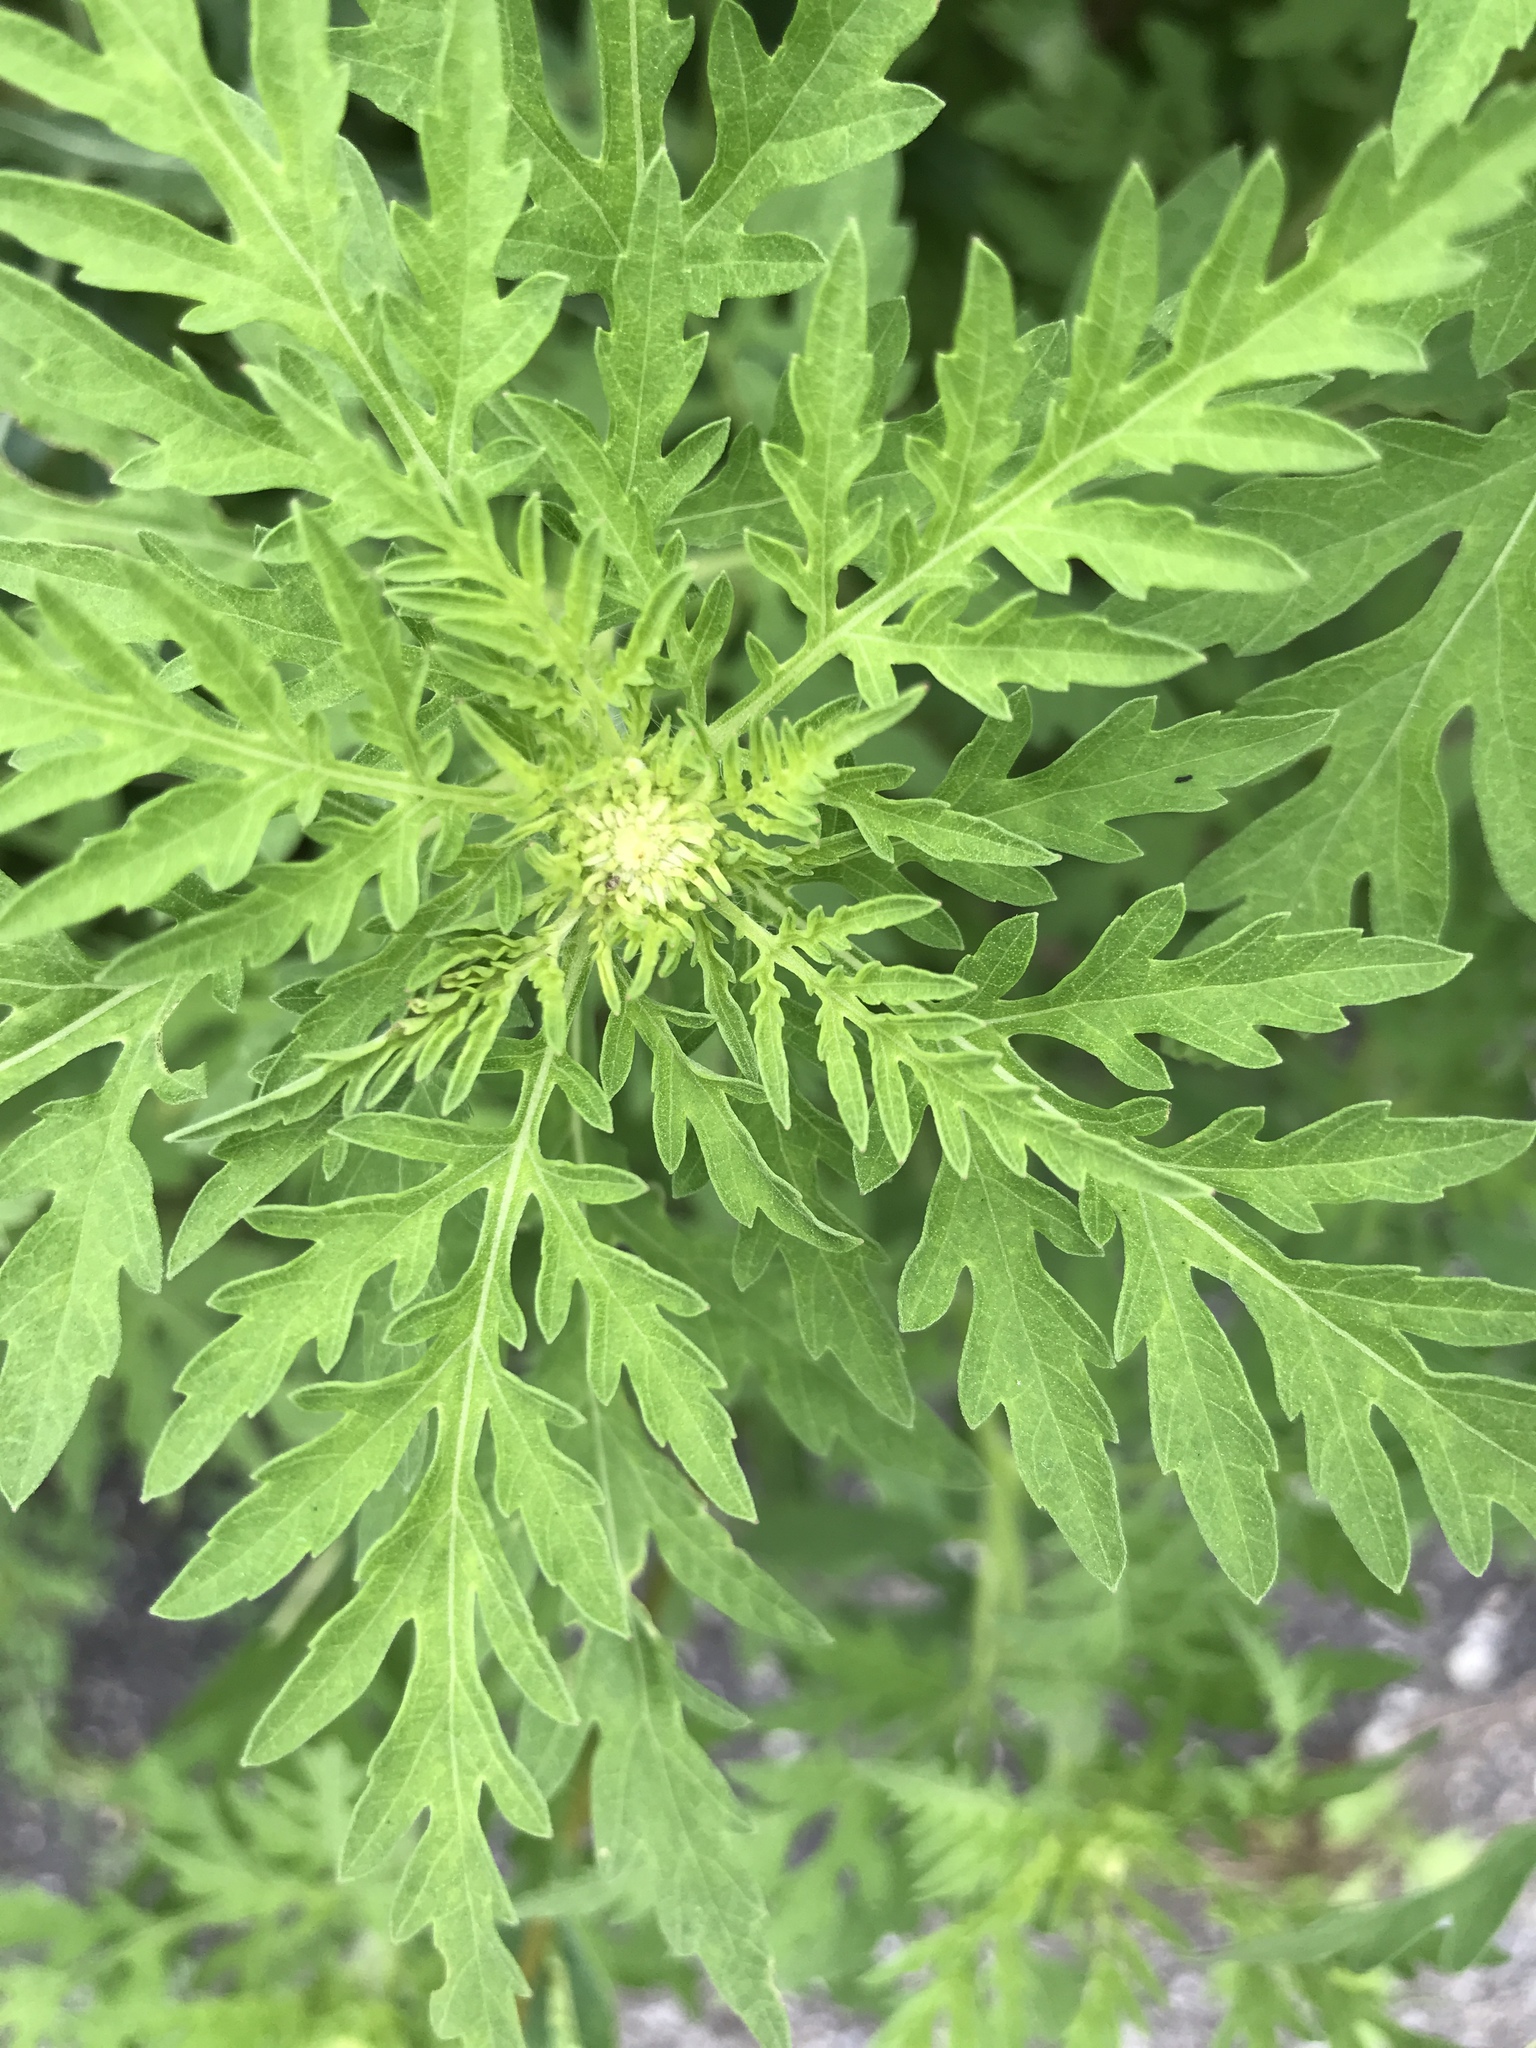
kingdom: Plantae
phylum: Tracheophyta
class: Magnoliopsida
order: Asterales
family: Asteraceae
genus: Ambrosia
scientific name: Ambrosia artemisiifolia
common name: Annual ragweed
